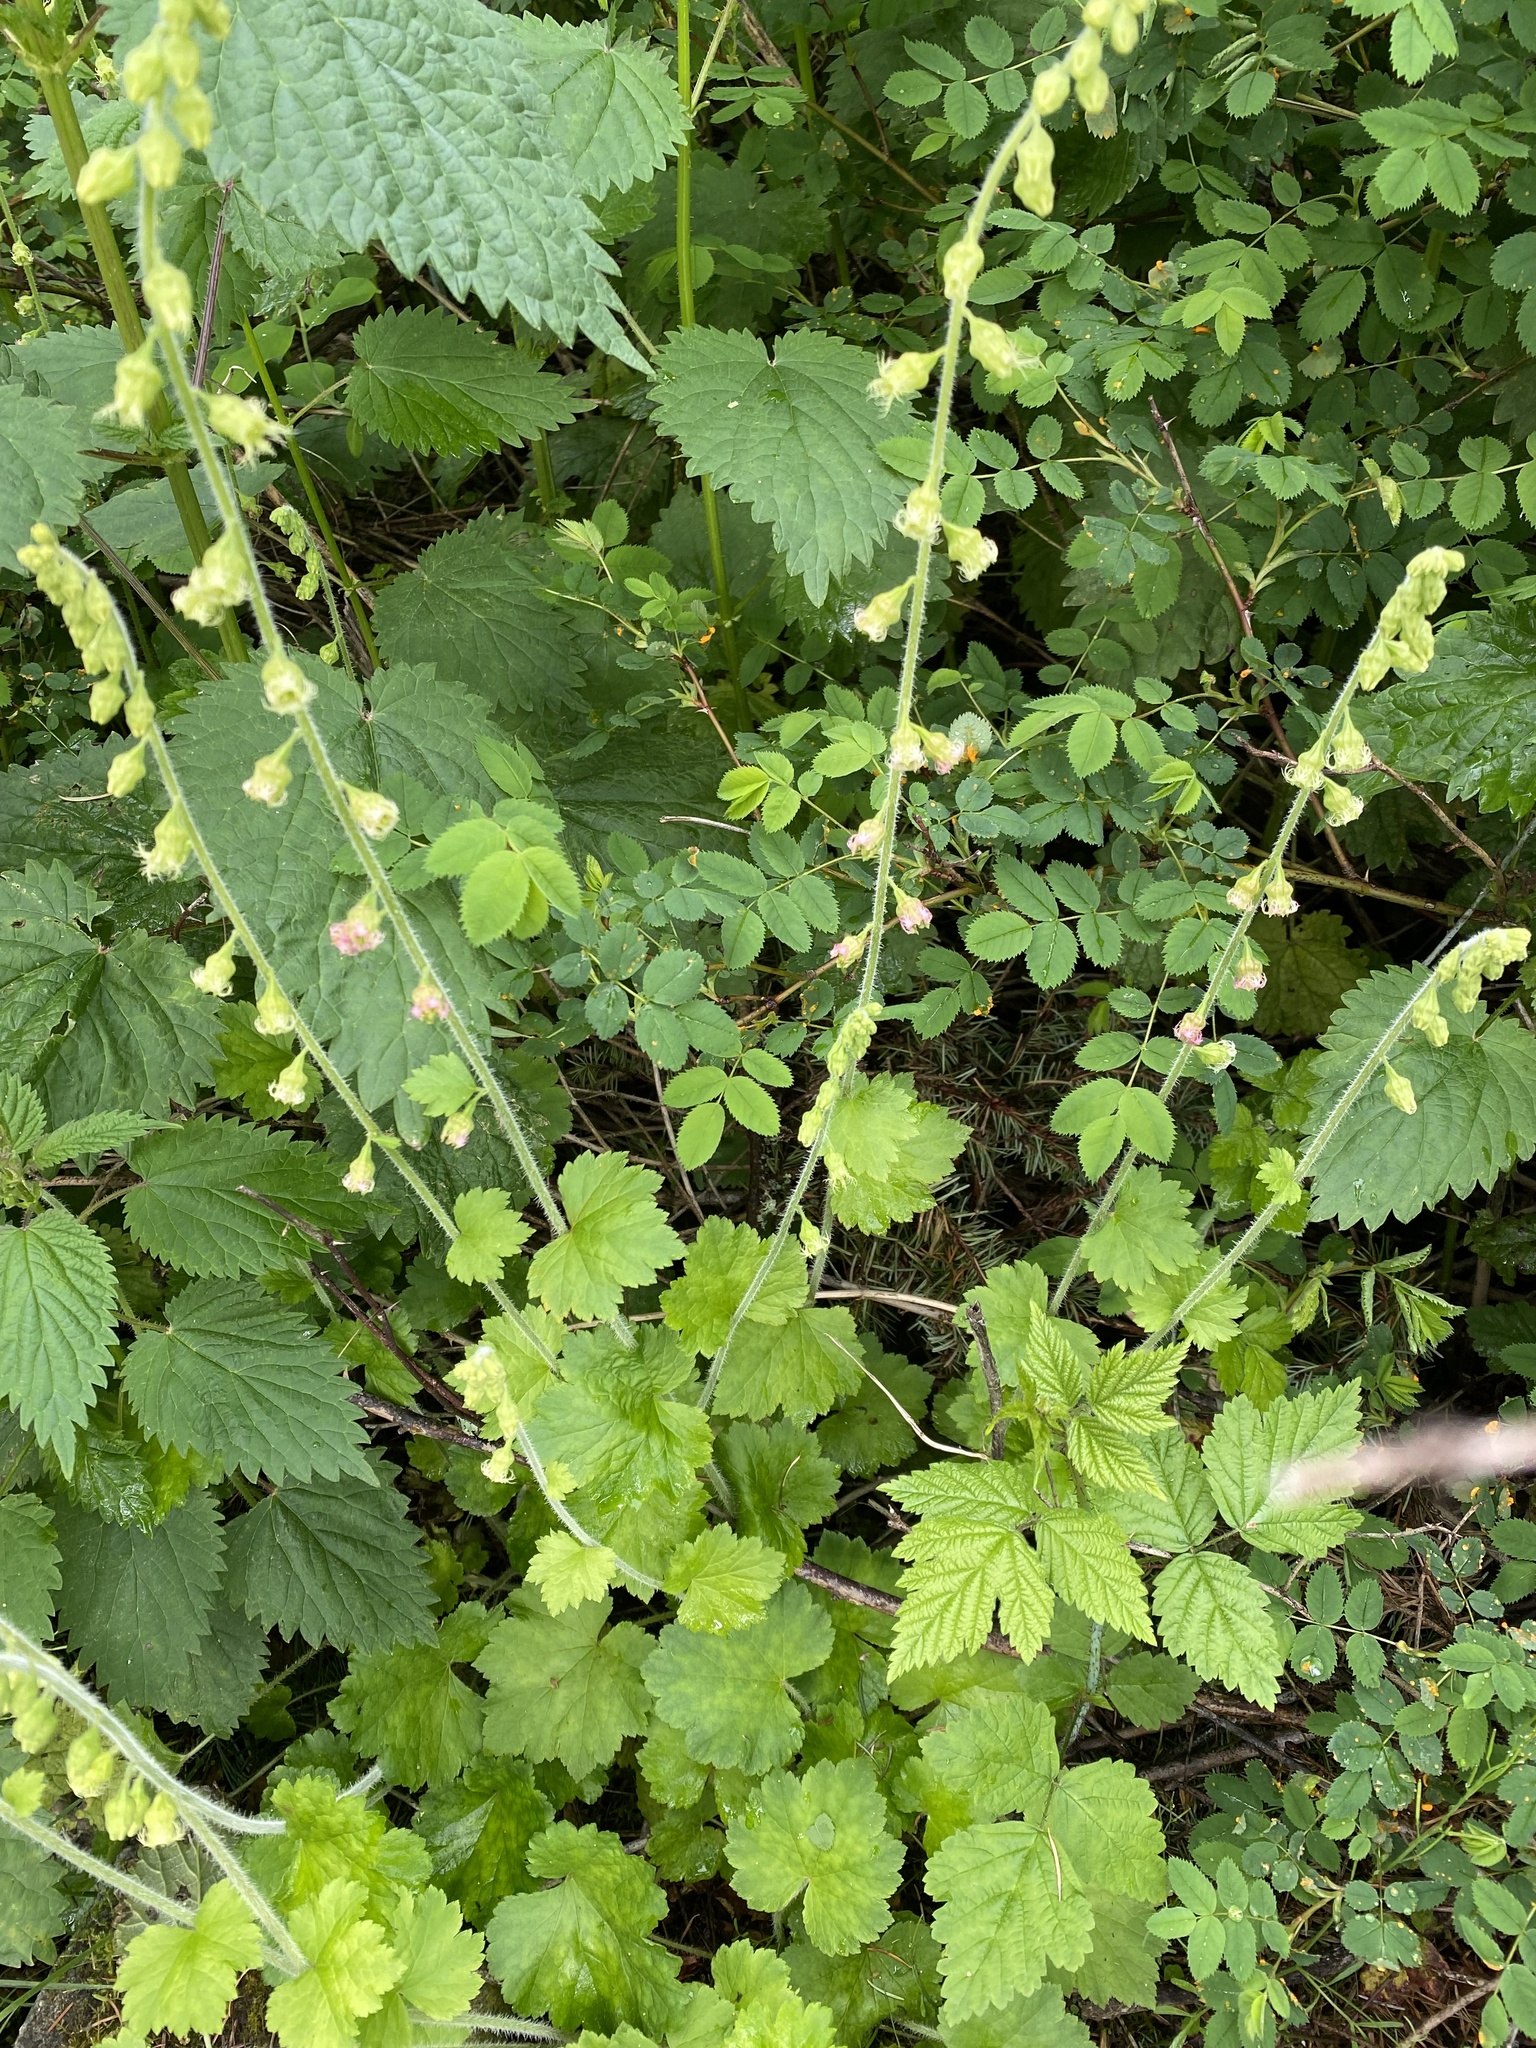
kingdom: Plantae
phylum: Tracheophyta
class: Magnoliopsida
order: Saxifragales
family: Saxifragaceae
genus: Tellima
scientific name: Tellima grandiflora
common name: Fringecups
